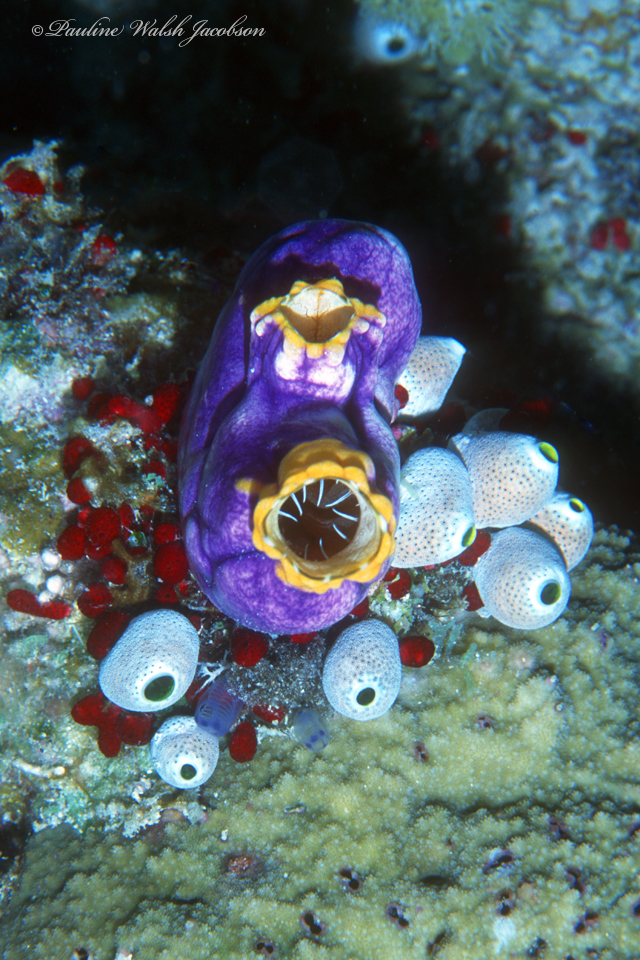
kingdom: Animalia
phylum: Chordata
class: Ascidiacea
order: Stolidobranchia
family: Styelidae
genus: Polycarpa
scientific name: Polycarpa aurata
